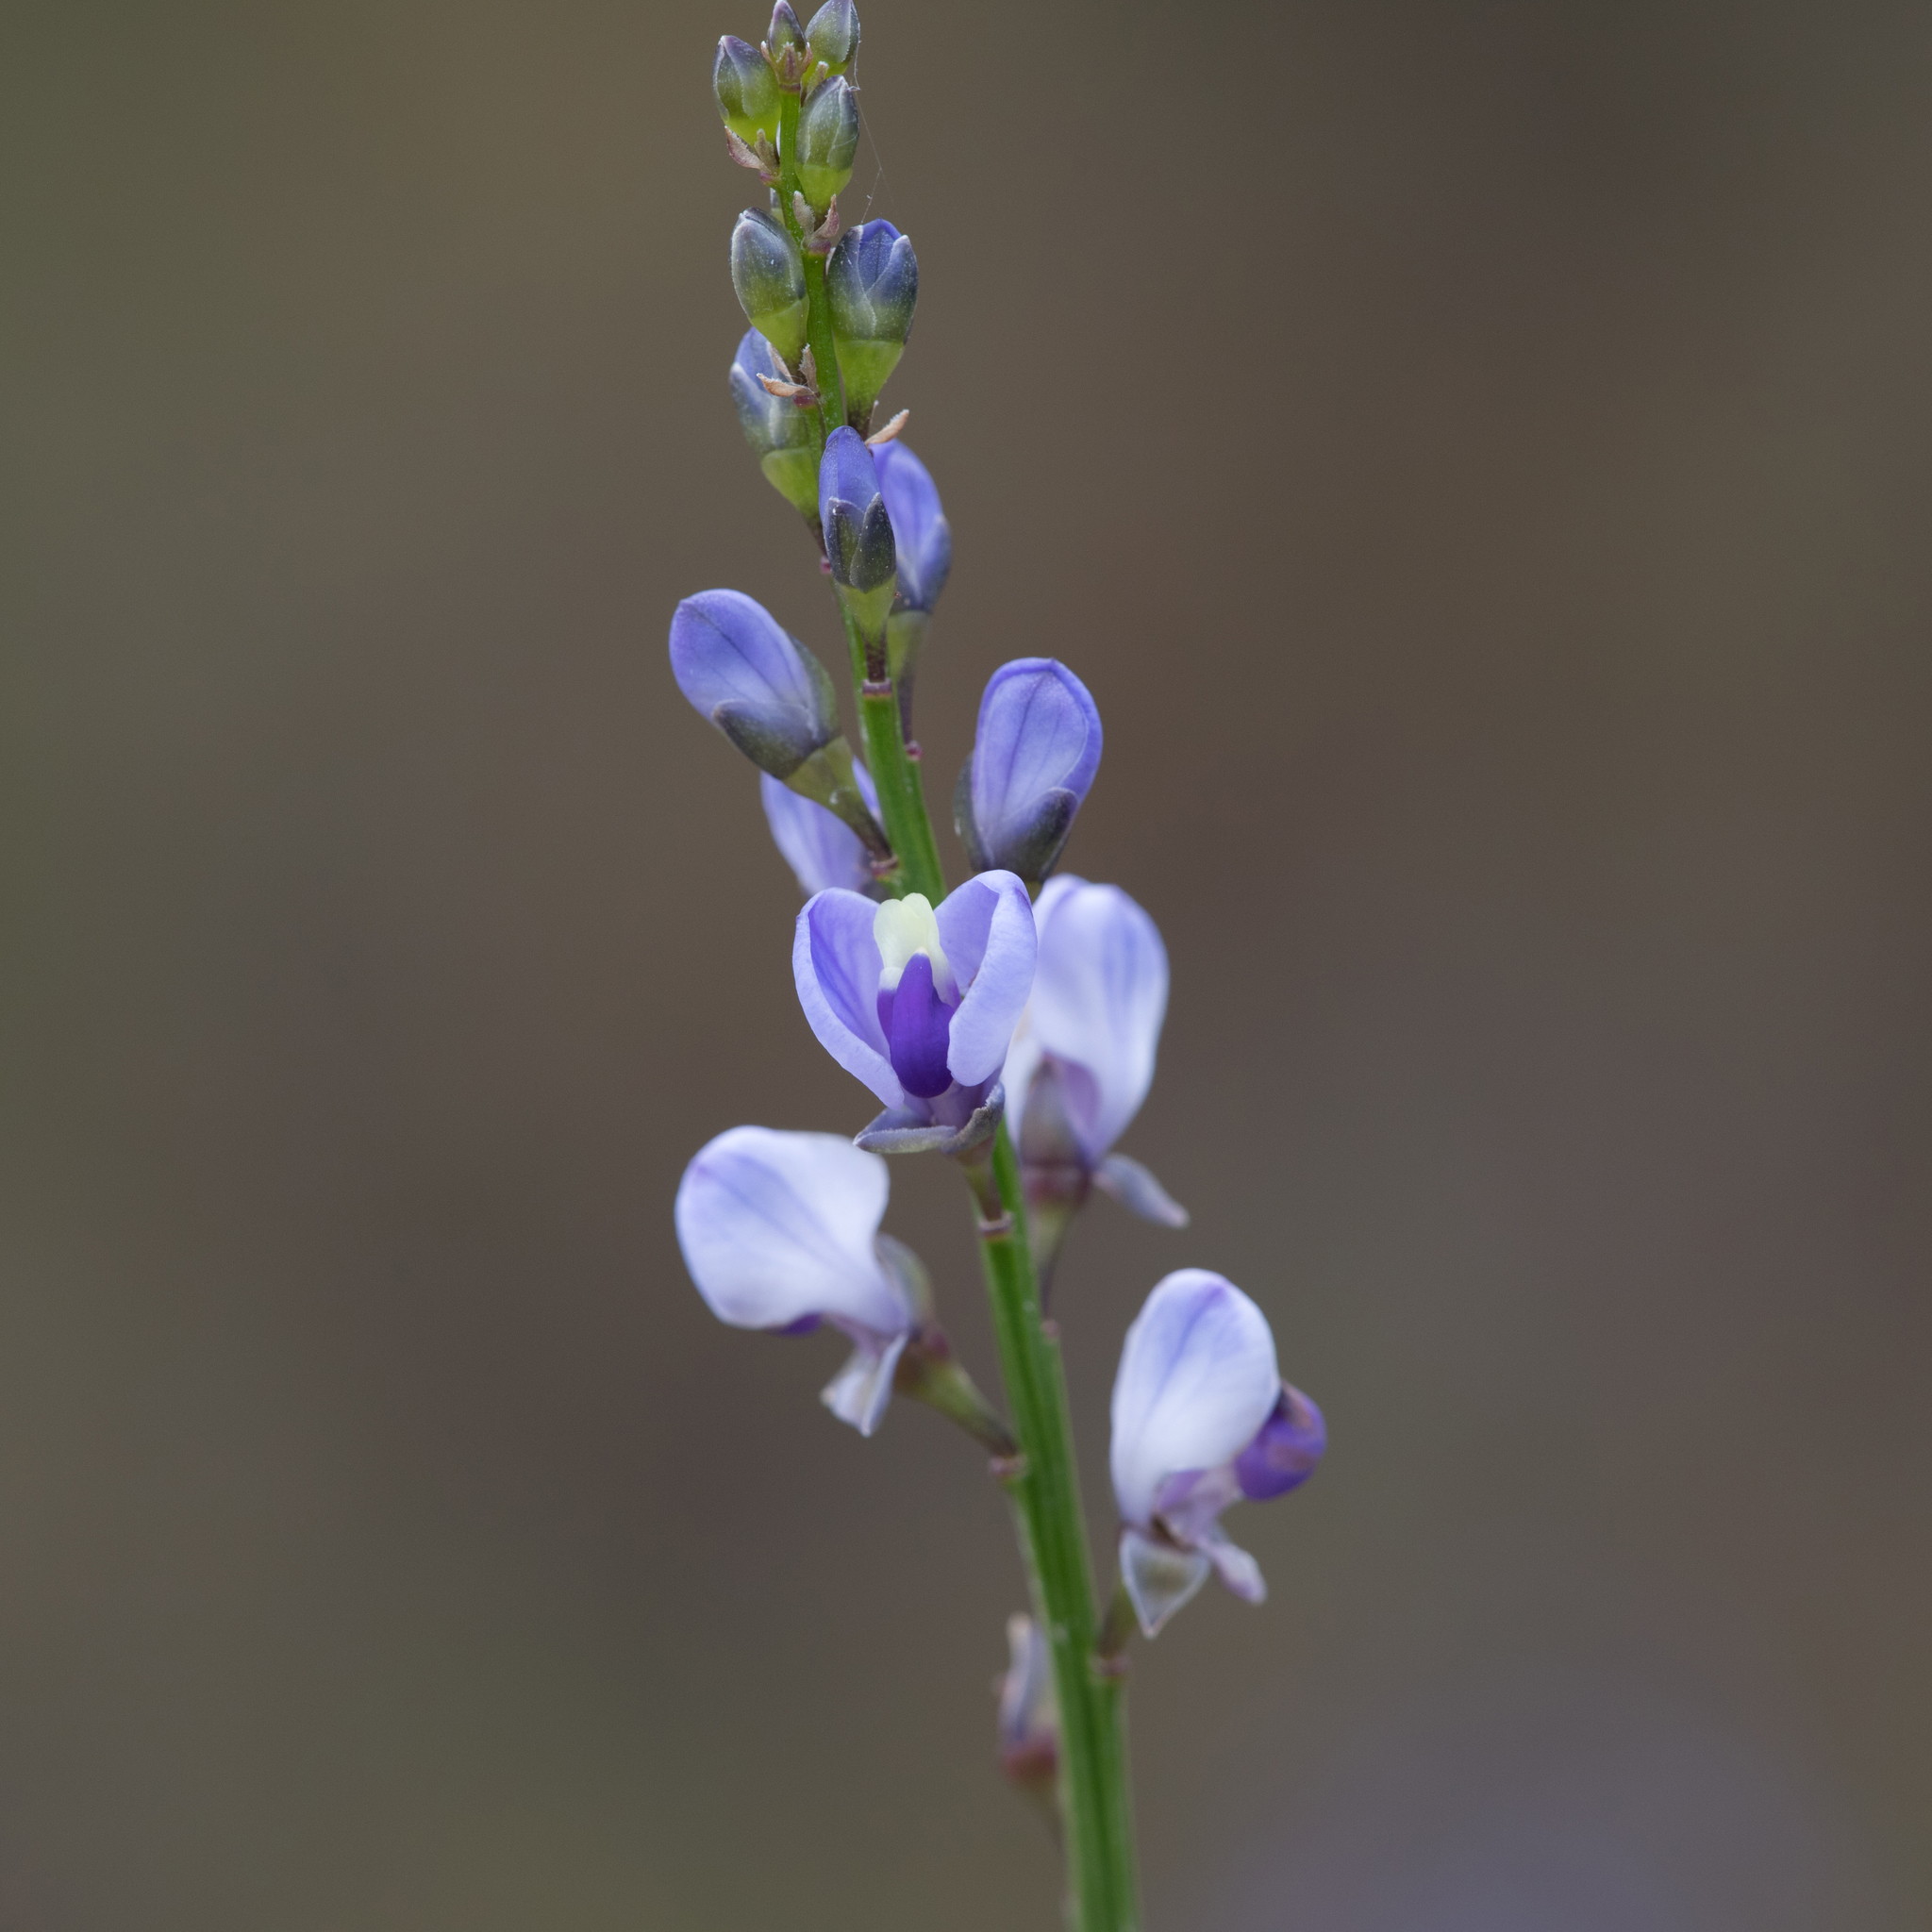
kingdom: Plantae
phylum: Tracheophyta
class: Magnoliopsida
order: Fabales
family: Polygalaceae
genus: Comesperma
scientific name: Comesperma volubile
